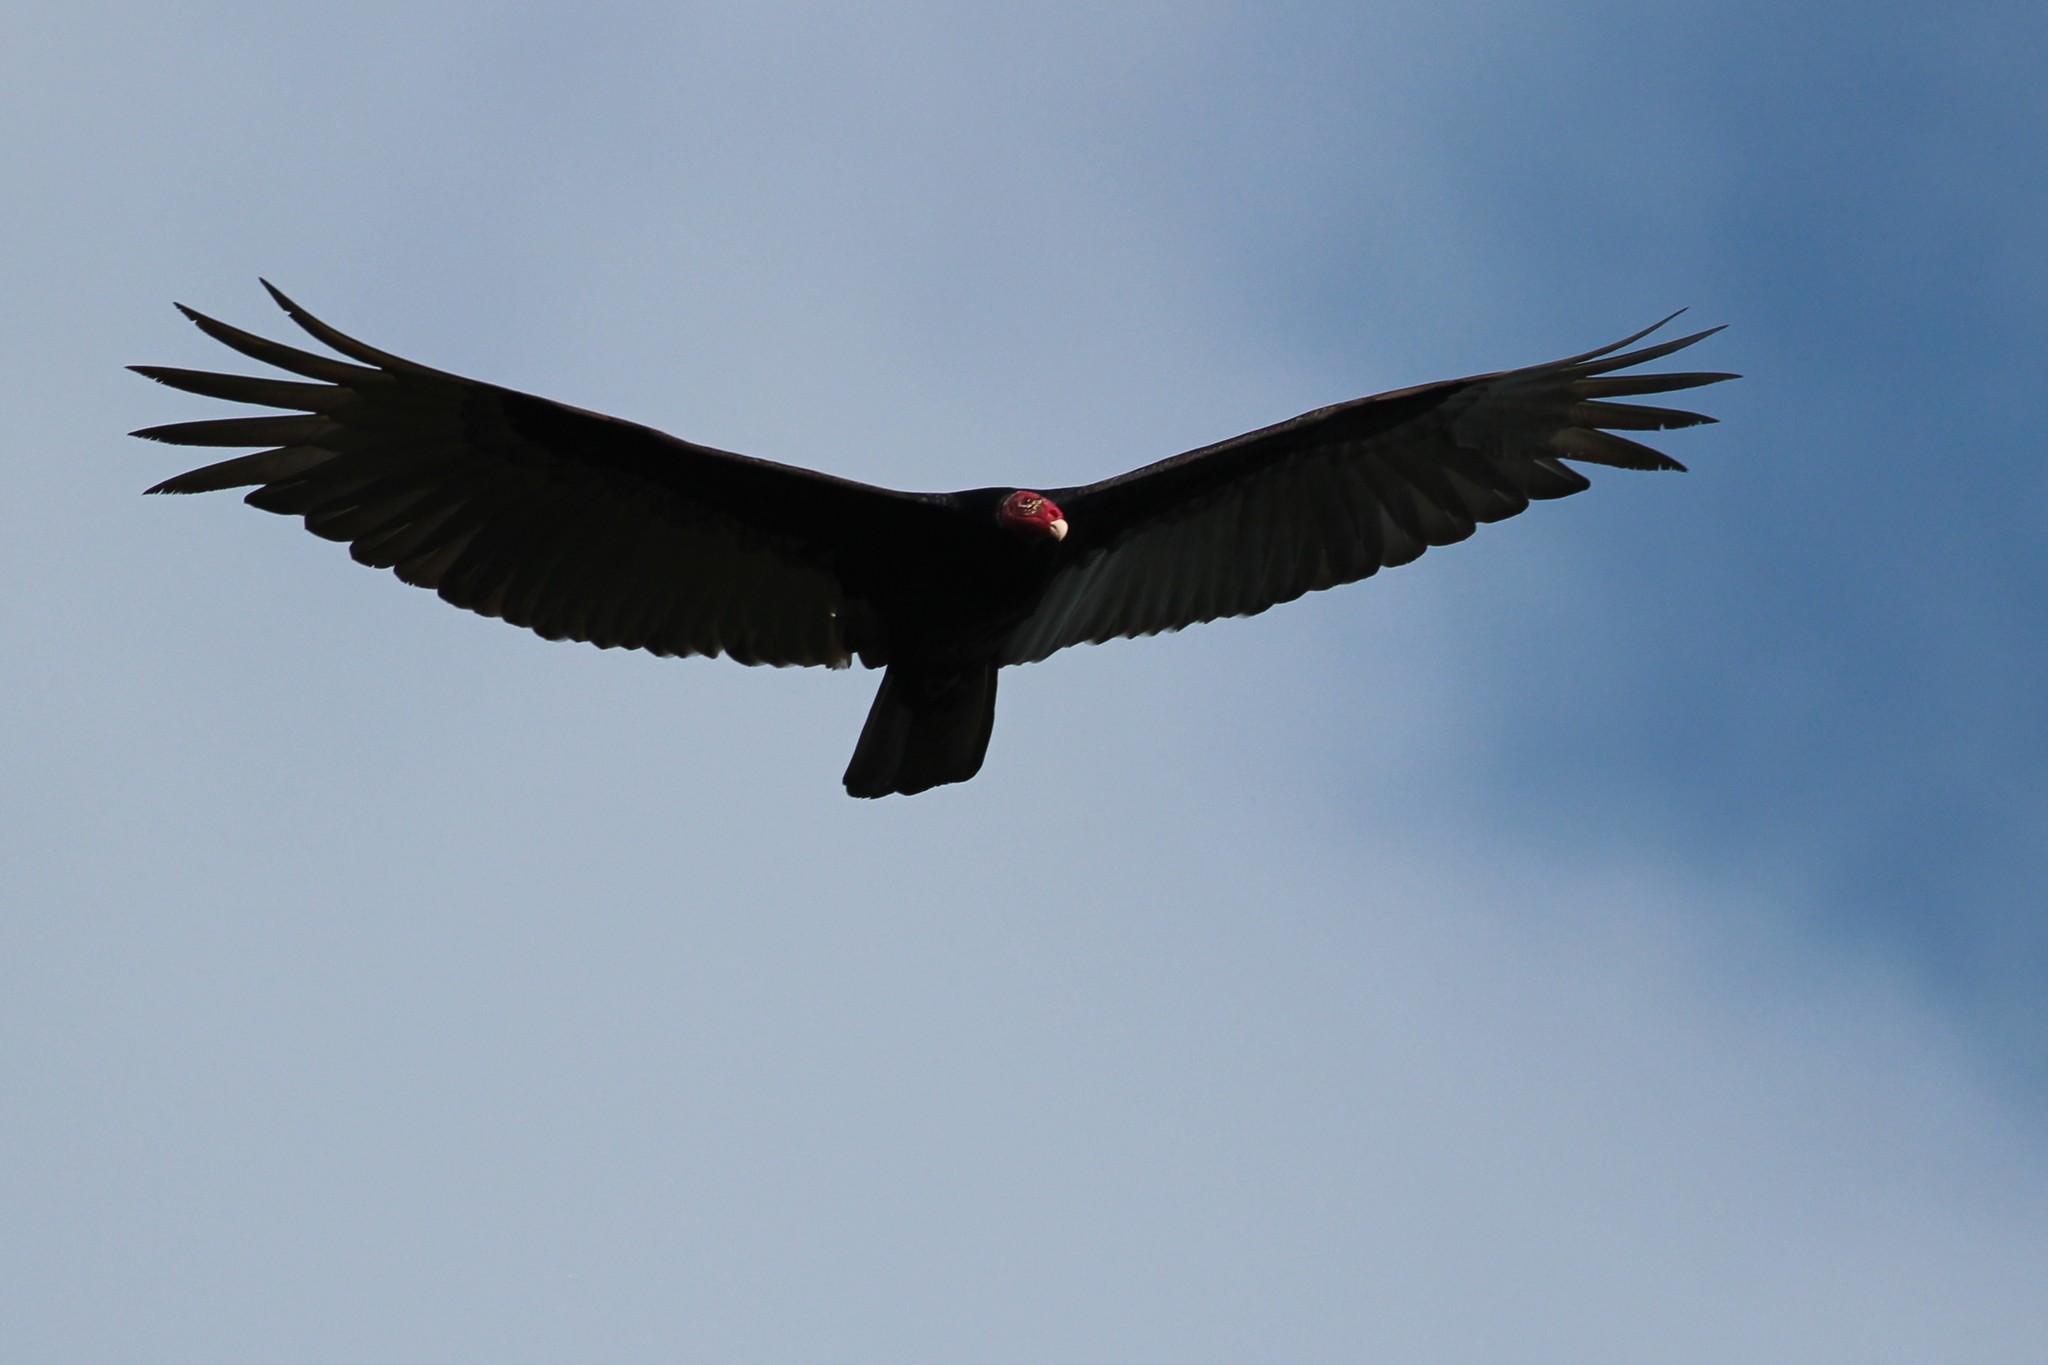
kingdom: Animalia
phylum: Chordata
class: Aves
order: Accipitriformes
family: Cathartidae
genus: Cathartes
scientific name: Cathartes aura
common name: Turkey vulture
